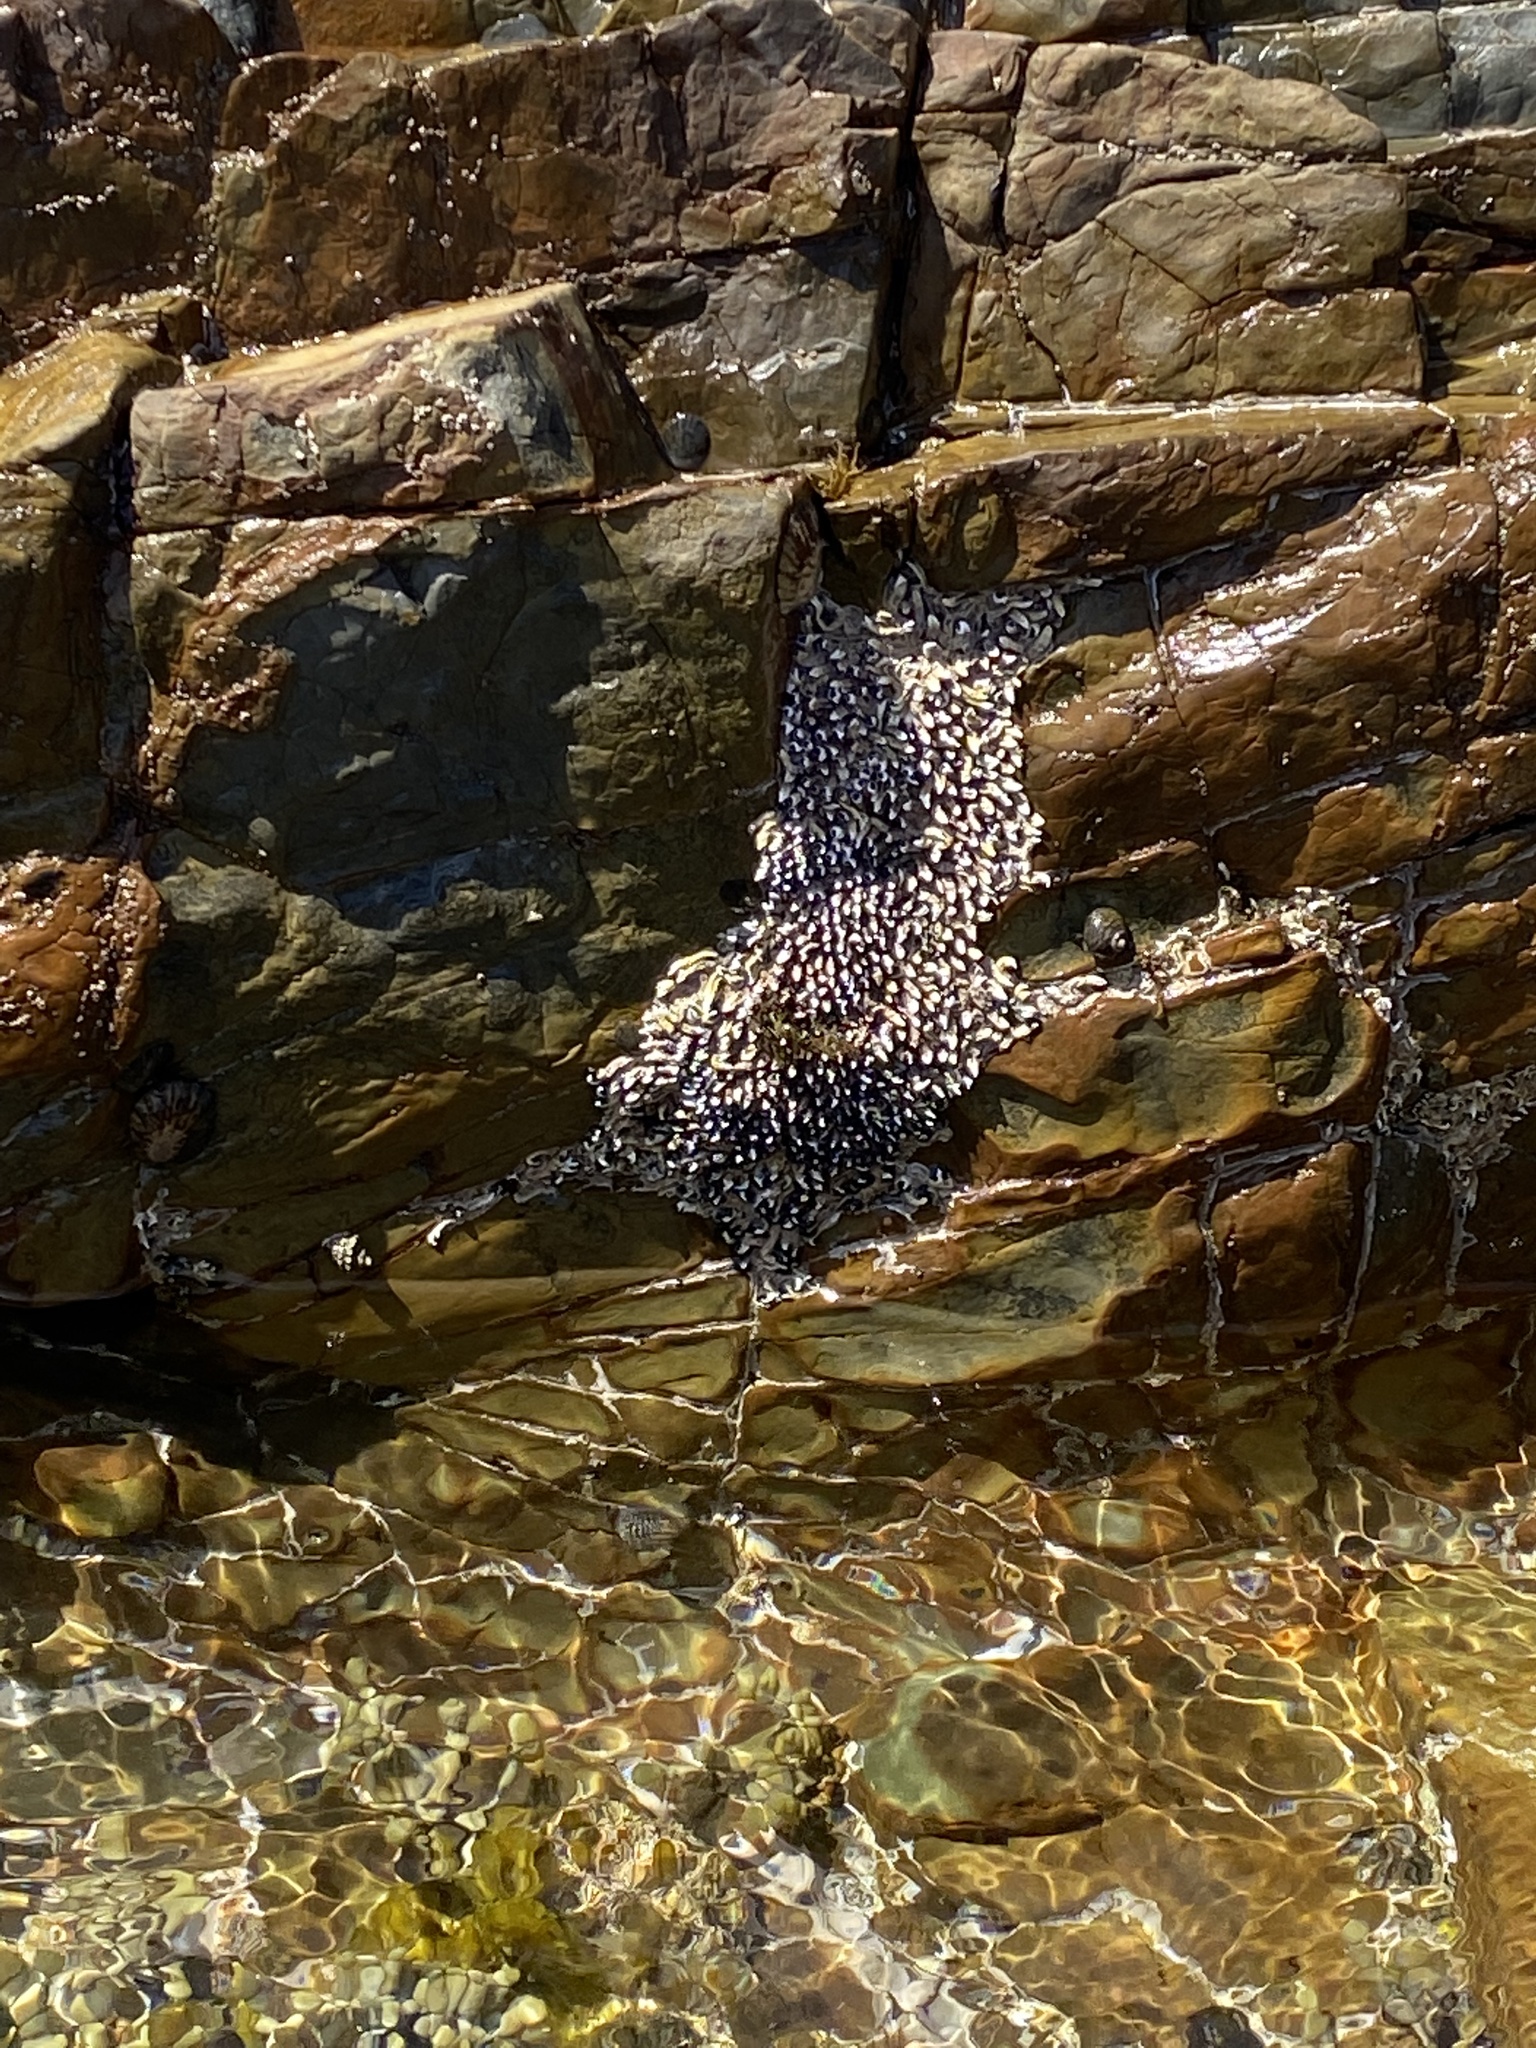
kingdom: Animalia
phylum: Annelida
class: Polychaeta
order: Sabellida
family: Serpulidae
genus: Spirobranchus
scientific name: Spirobranchus cariniferus
